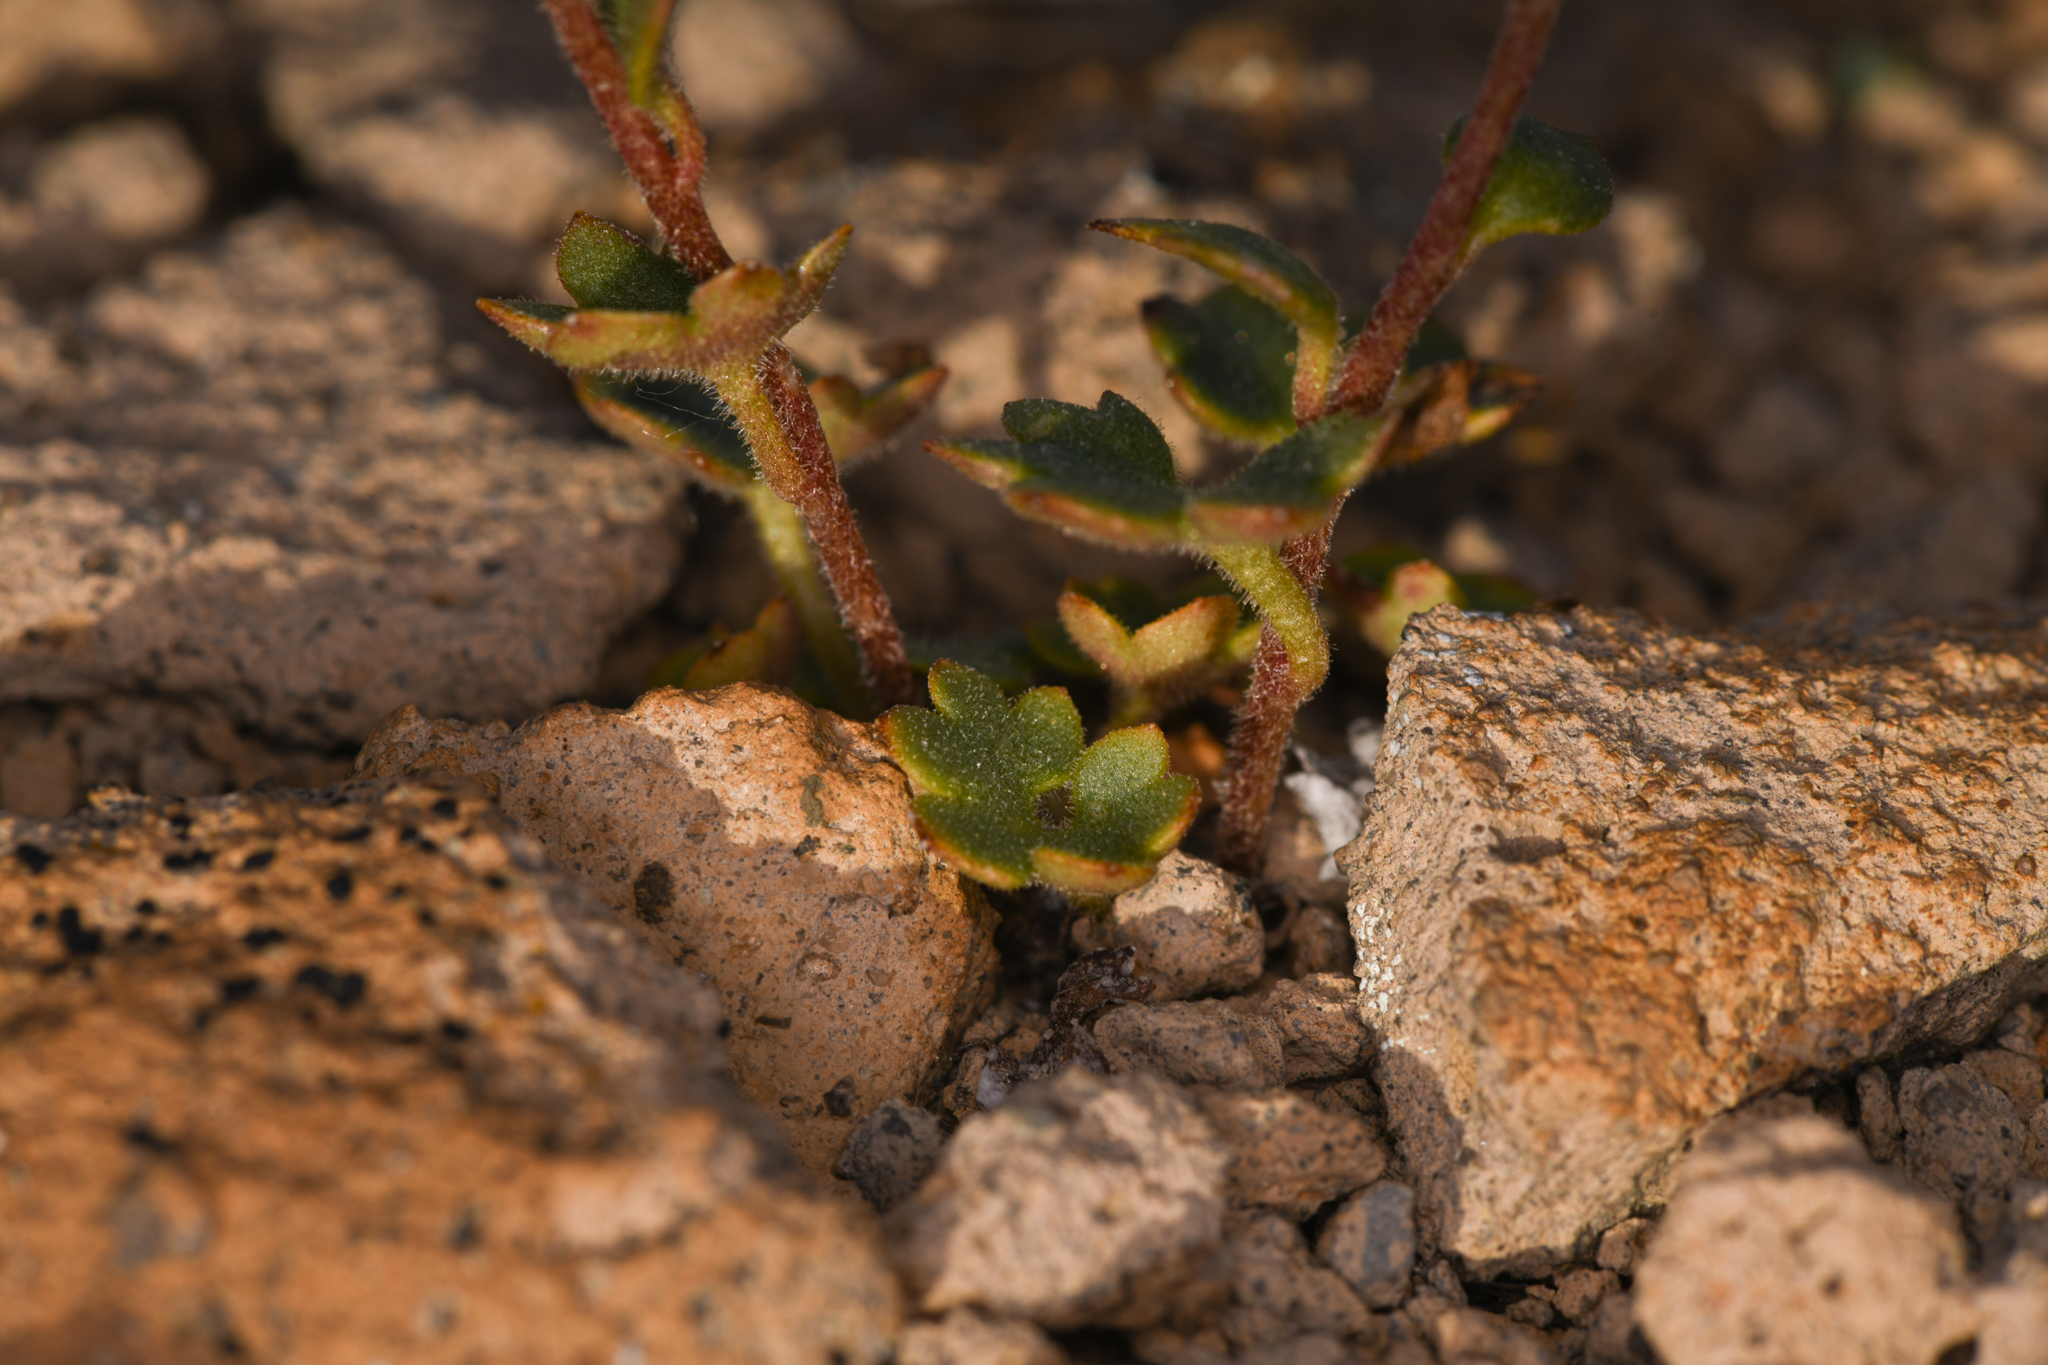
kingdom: Plantae
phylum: Tracheophyta
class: Magnoliopsida
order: Saxifragales
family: Saxifragaceae
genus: Saxifraga
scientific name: Saxifraga cernua
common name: Drooping saxifrage
